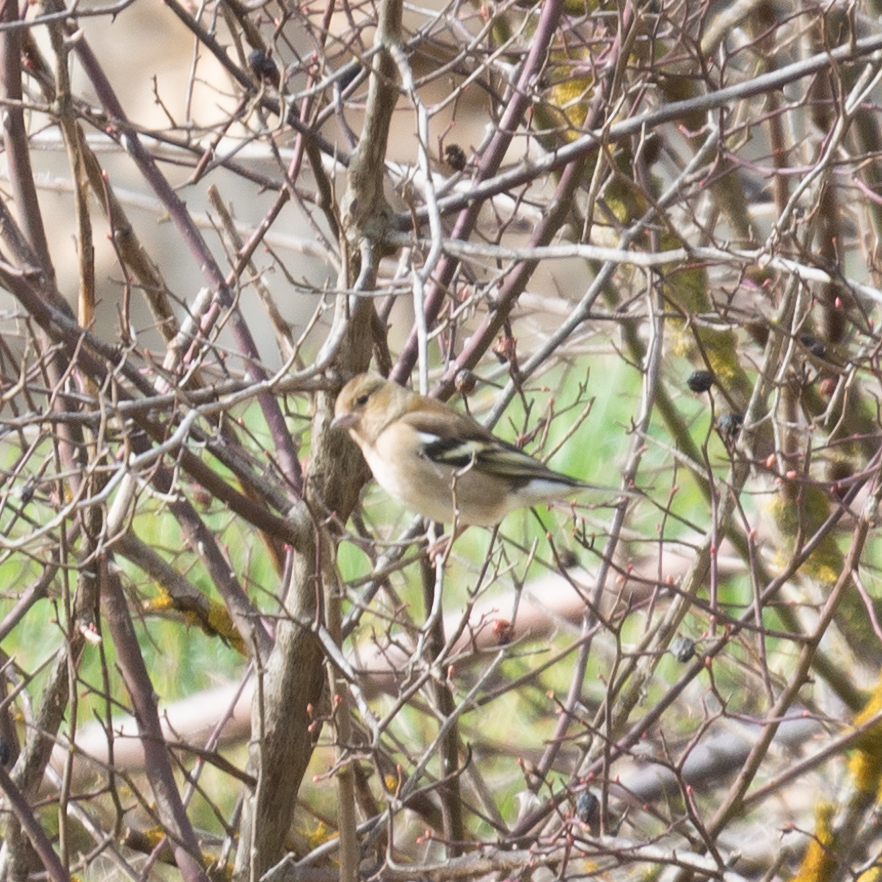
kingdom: Animalia
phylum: Chordata
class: Aves
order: Passeriformes
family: Fringillidae
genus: Fringilla
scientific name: Fringilla coelebs
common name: Common chaffinch
